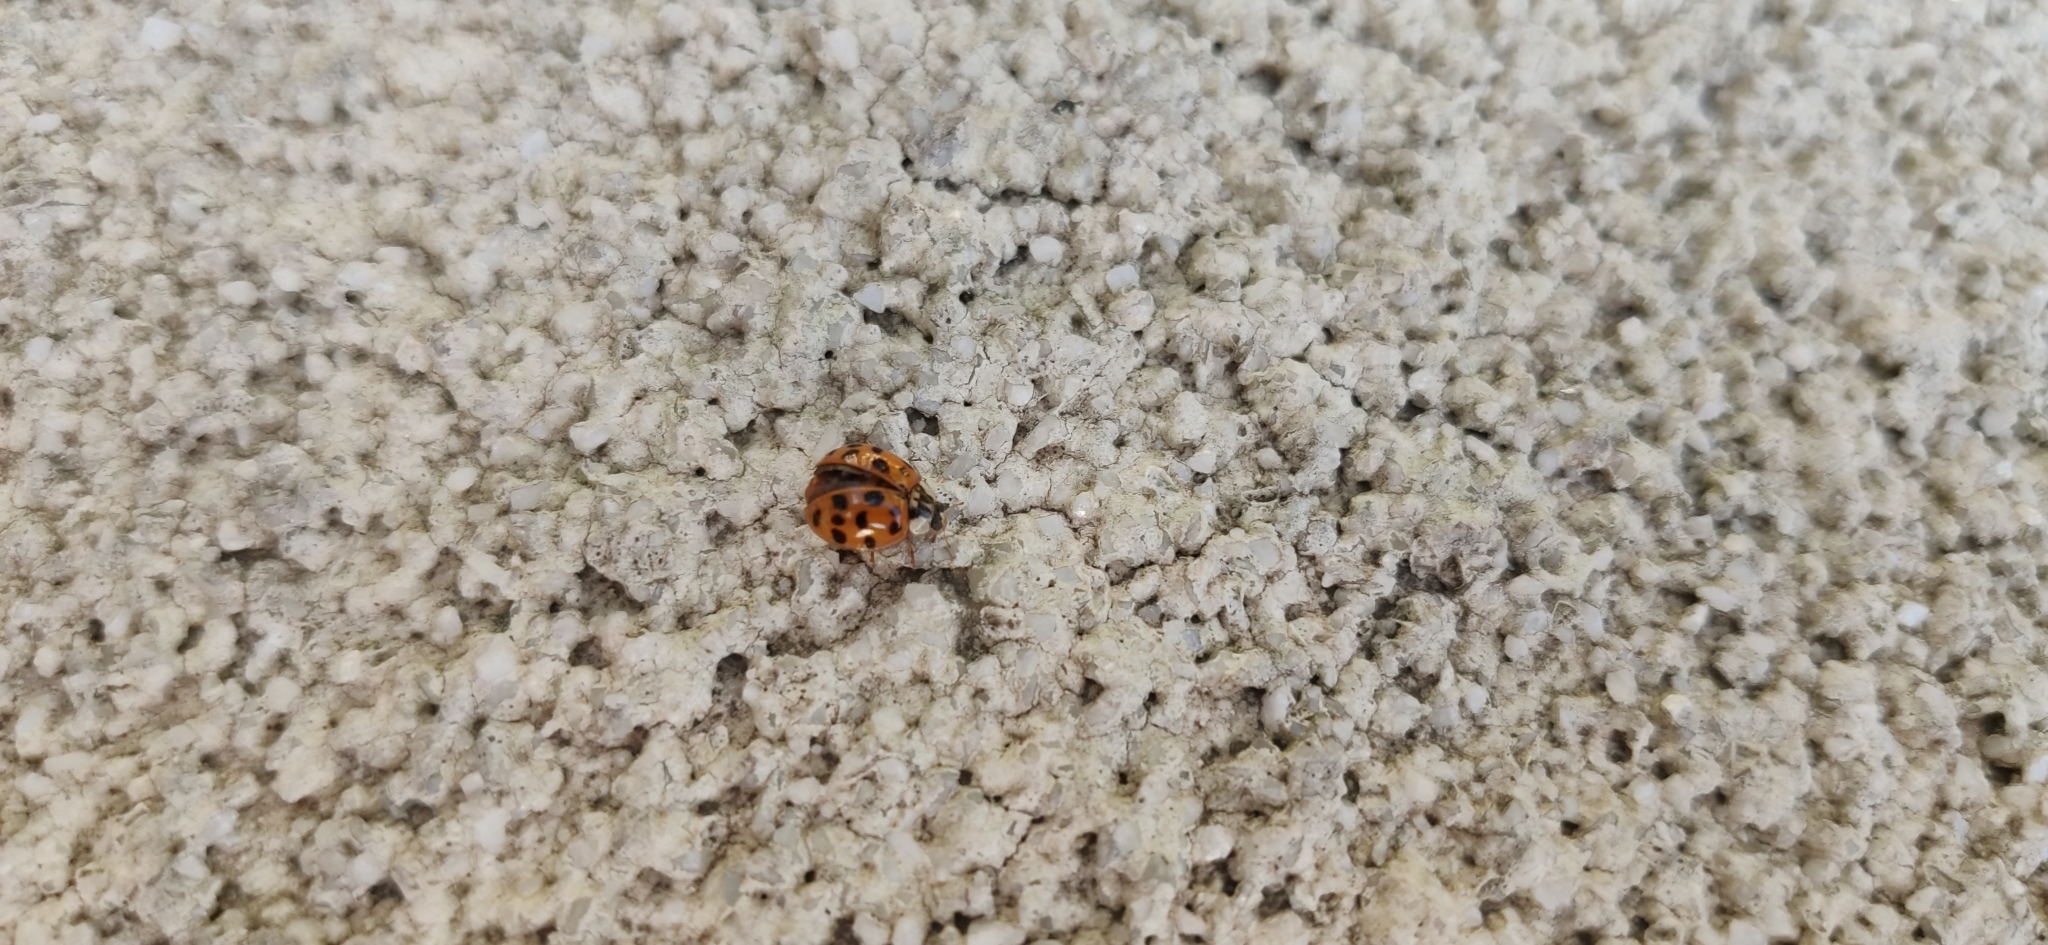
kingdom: Animalia
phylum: Arthropoda
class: Insecta
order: Coleoptera
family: Coccinellidae
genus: Harmonia
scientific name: Harmonia axyridis
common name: Harlequin ladybird
